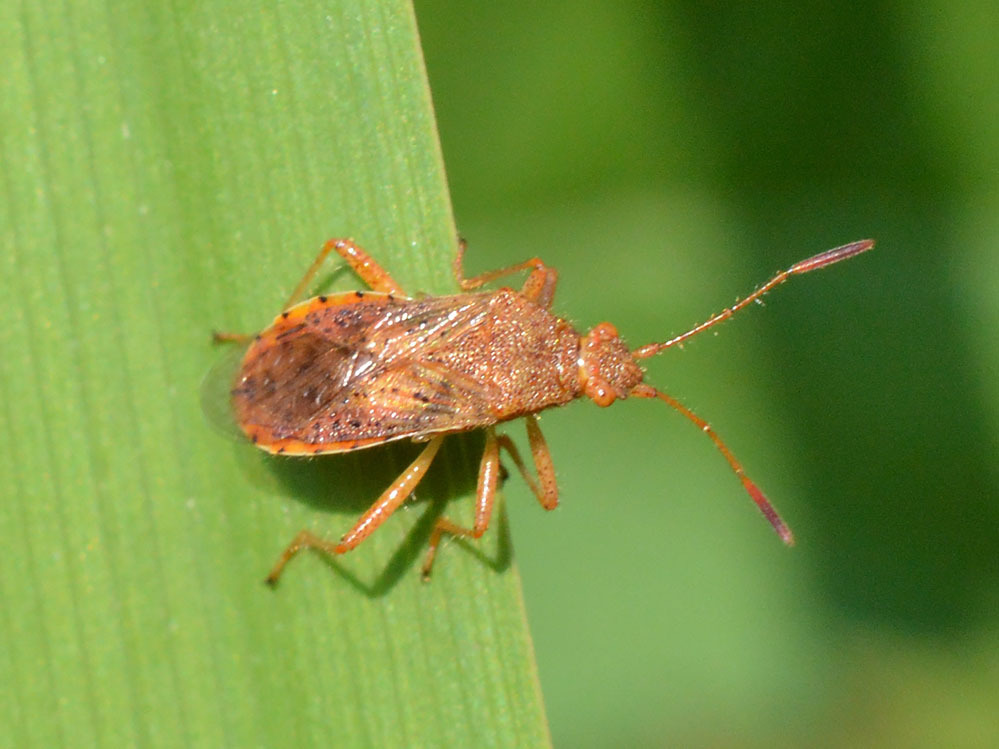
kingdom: Animalia
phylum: Arthropoda
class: Insecta
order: Hemiptera
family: Rhopalidae
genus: Rhopalus
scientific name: Rhopalus maculatus
